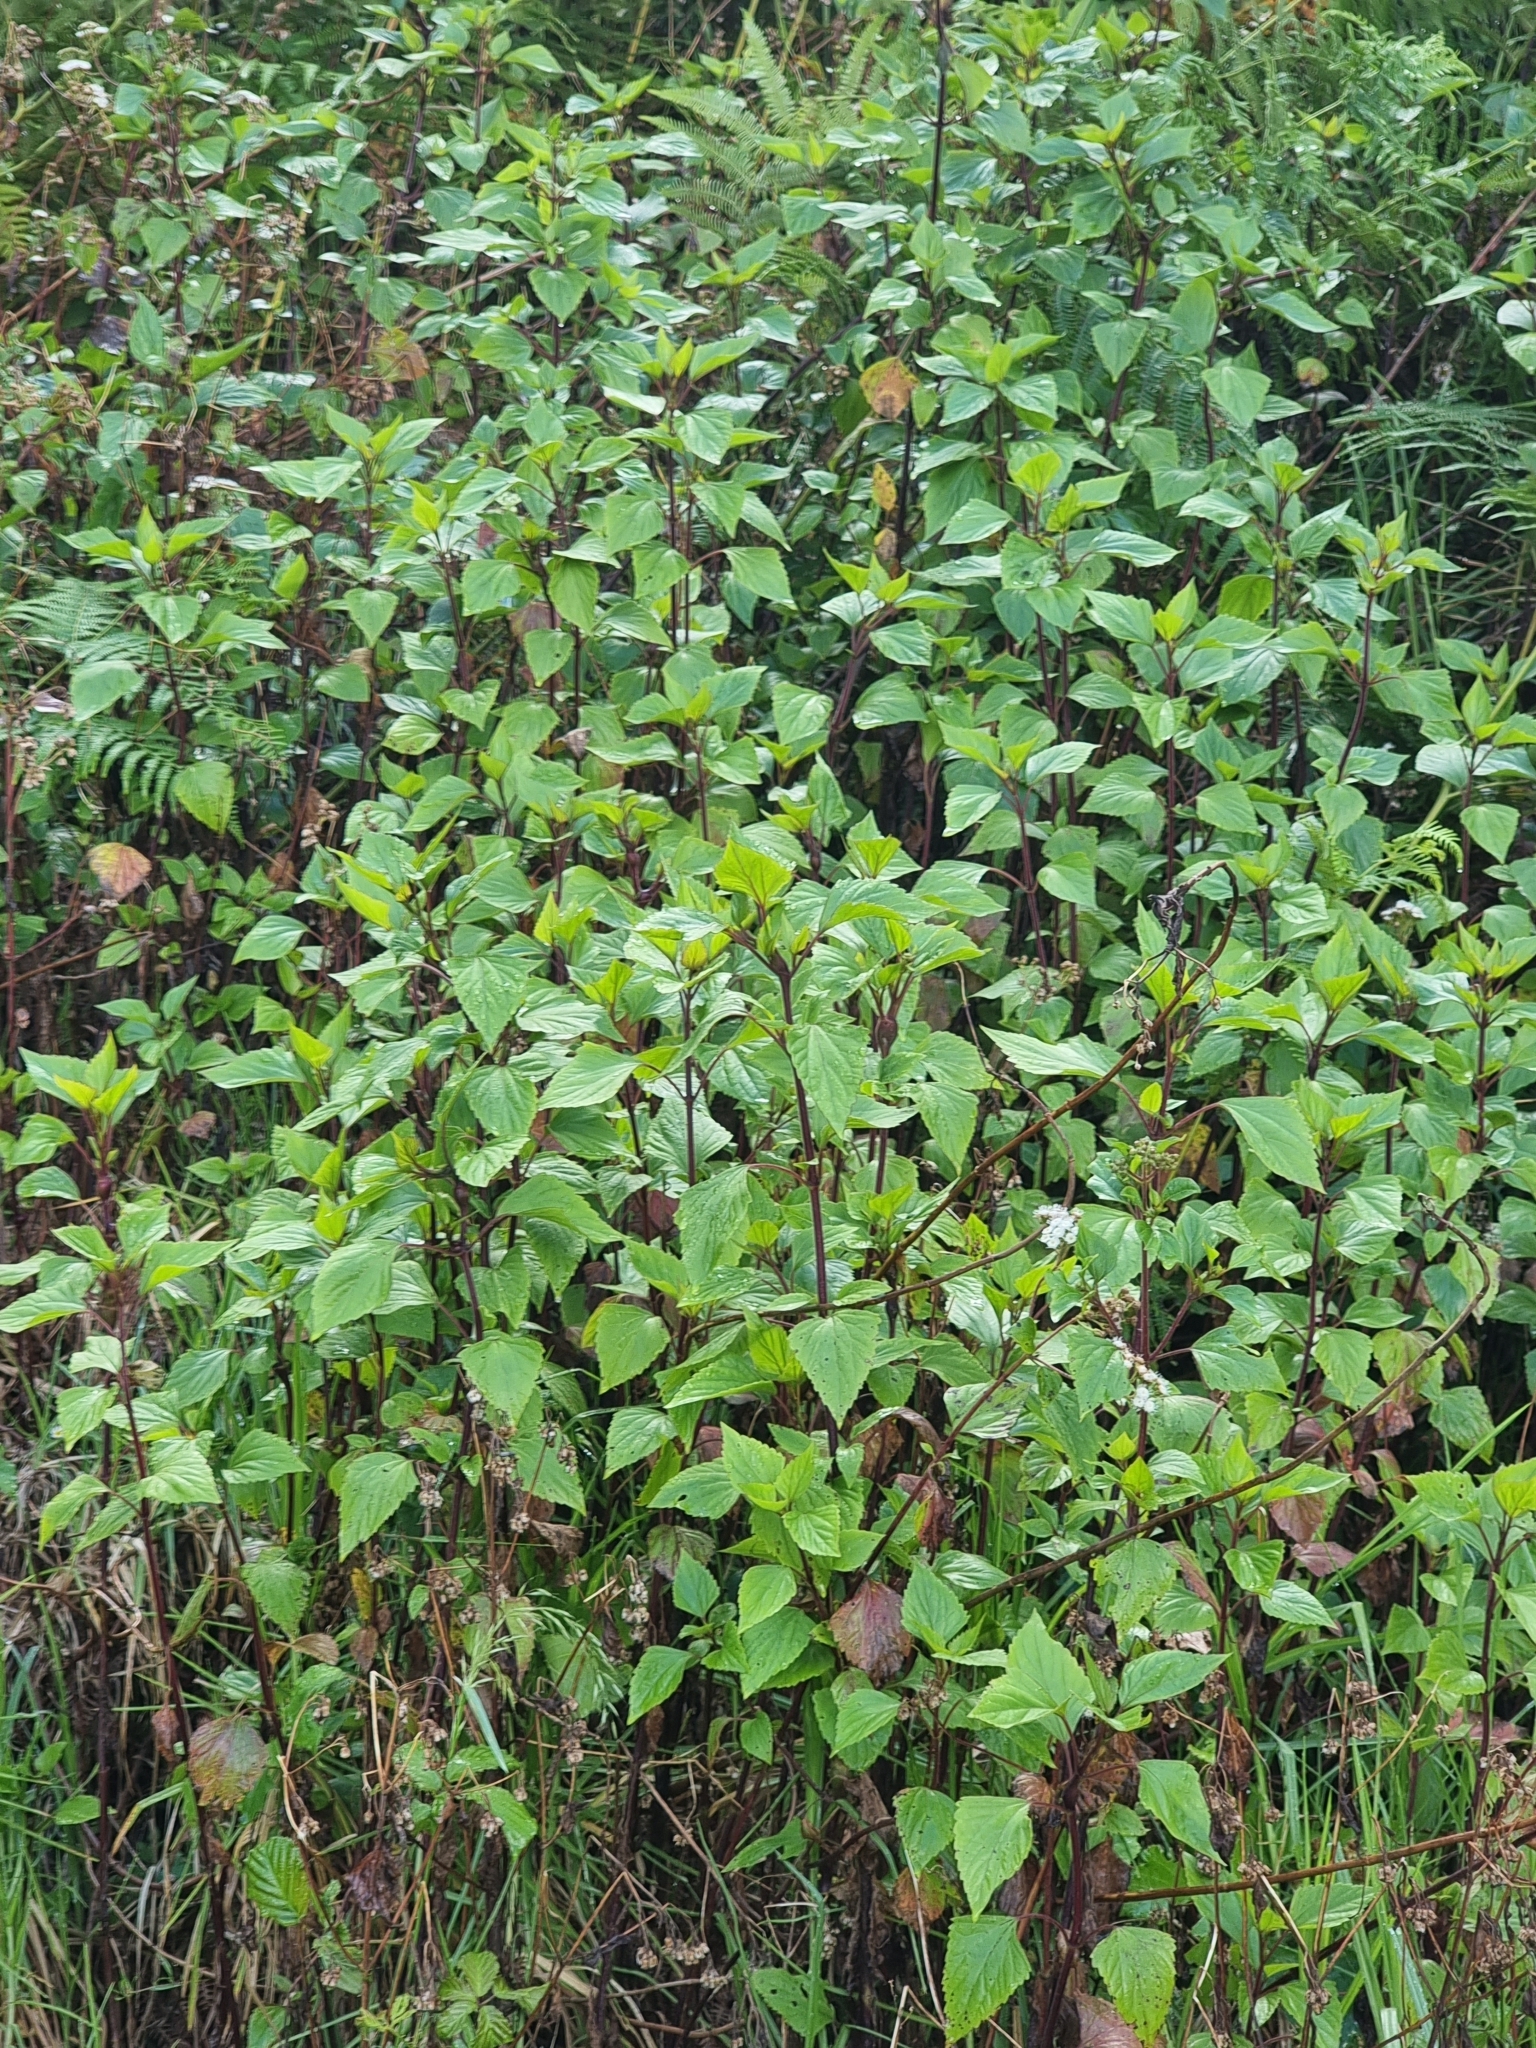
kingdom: Plantae
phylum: Tracheophyta
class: Magnoliopsida
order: Asterales
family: Asteraceae
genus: Ageratina
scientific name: Ageratina adenophora
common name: Sticky snakeroot
